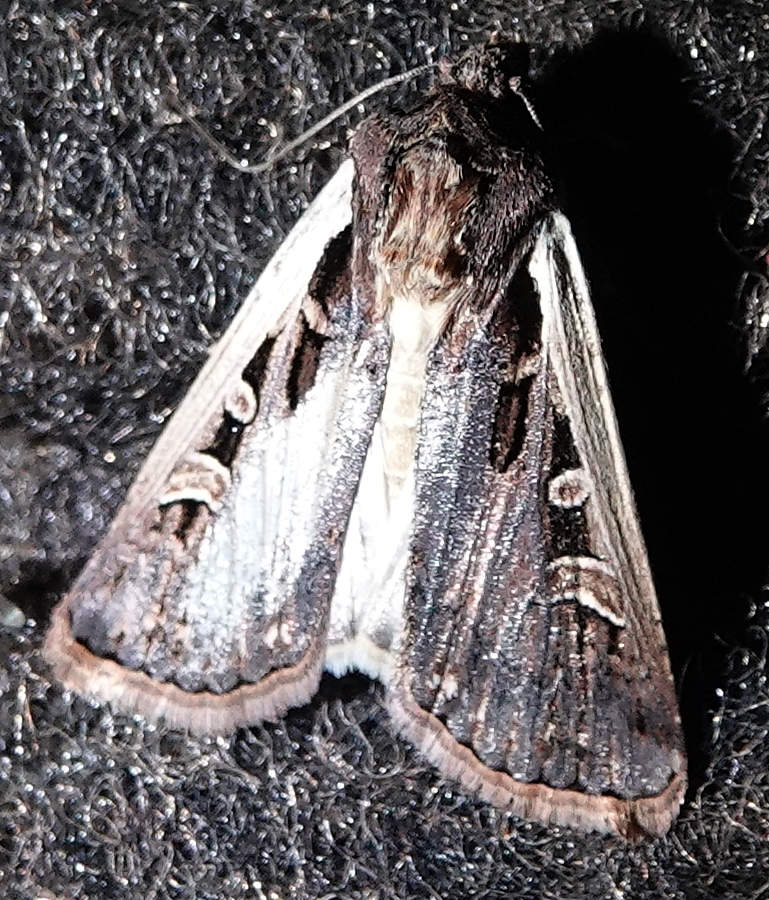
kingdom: Animalia
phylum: Arthropoda
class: Insecta
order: Lepidoptera
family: Noctuidae
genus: Striacosta
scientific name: Striacosta albicosta
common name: Western bean cutworm moth
